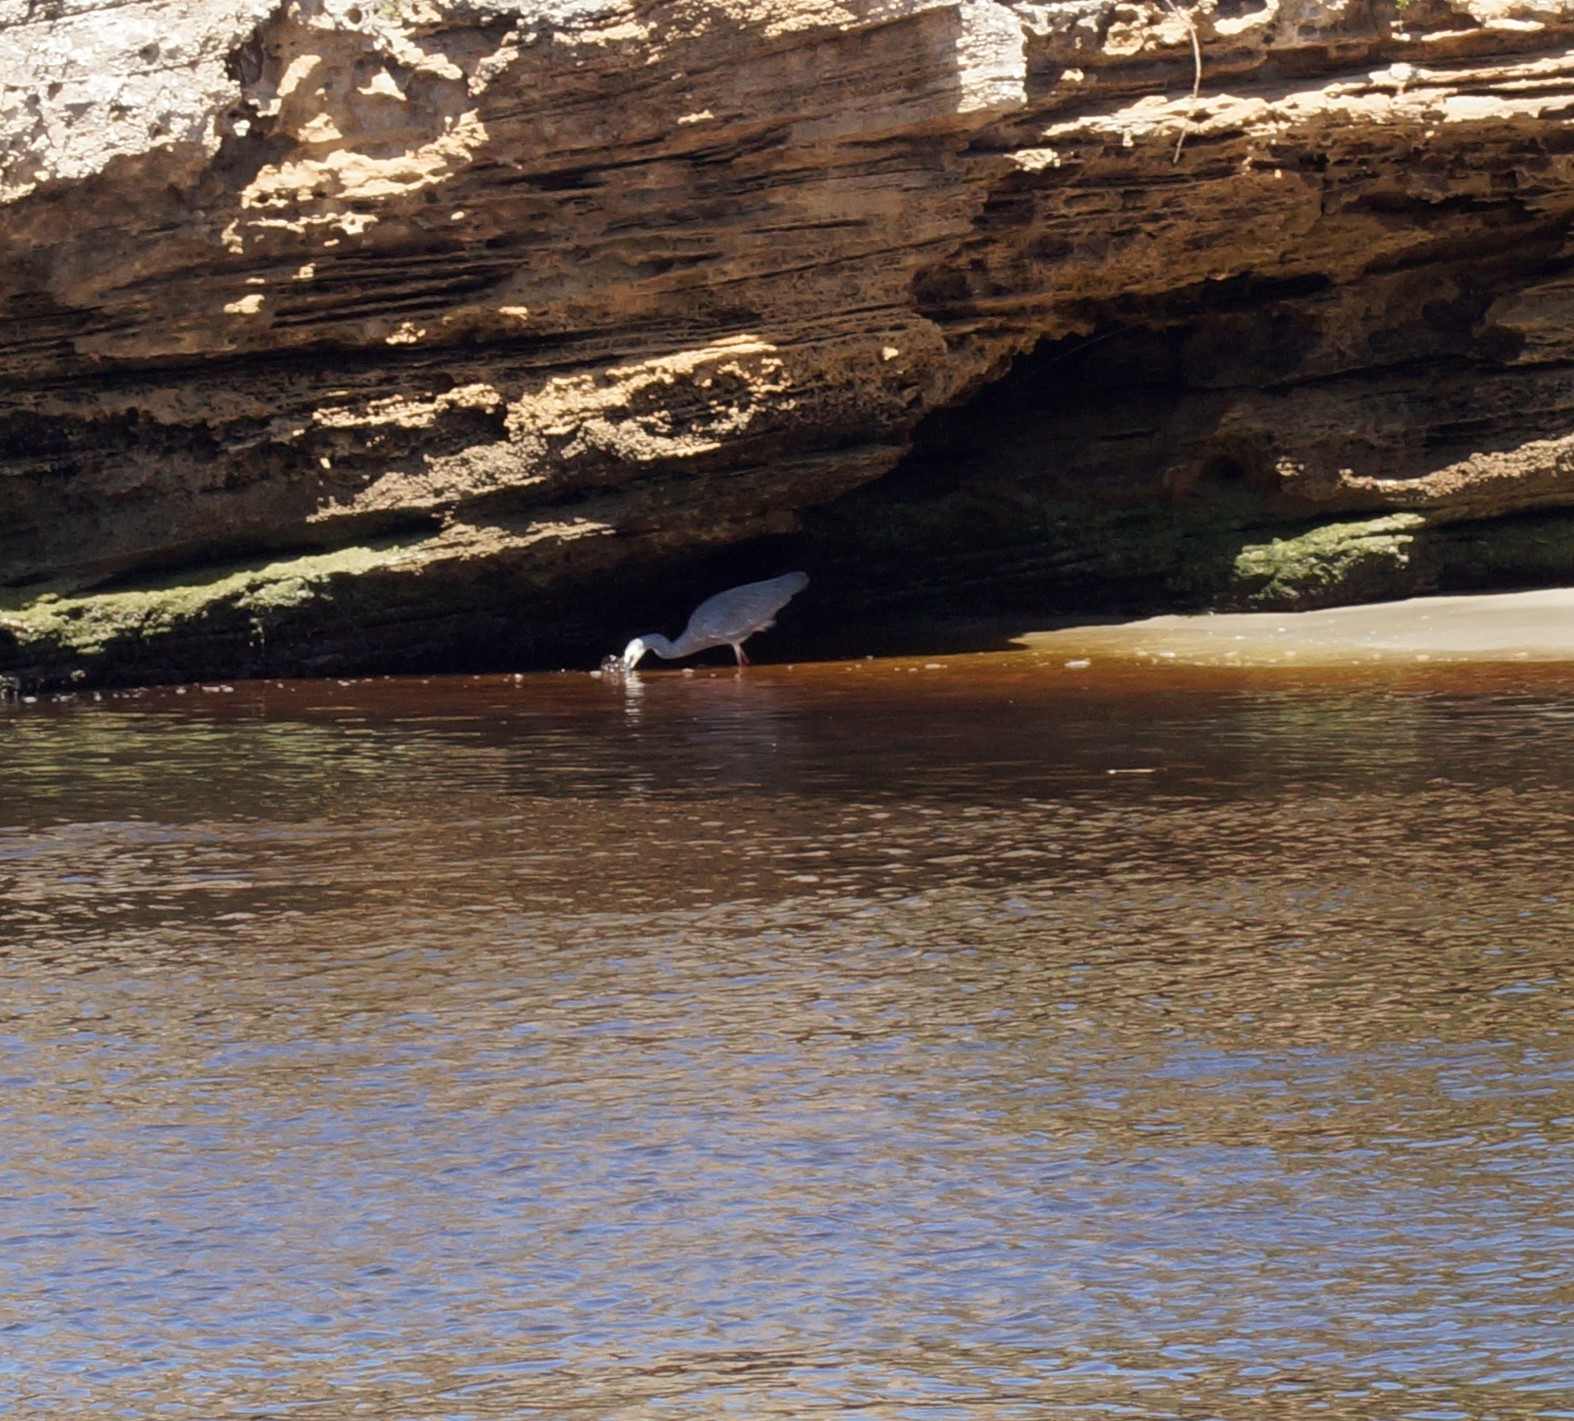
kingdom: Animalia
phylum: Chordata
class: Aves
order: Pelecaniformes
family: Ardeidae
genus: Egretta
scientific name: Egretta novaehollandiae
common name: White-faced heron
